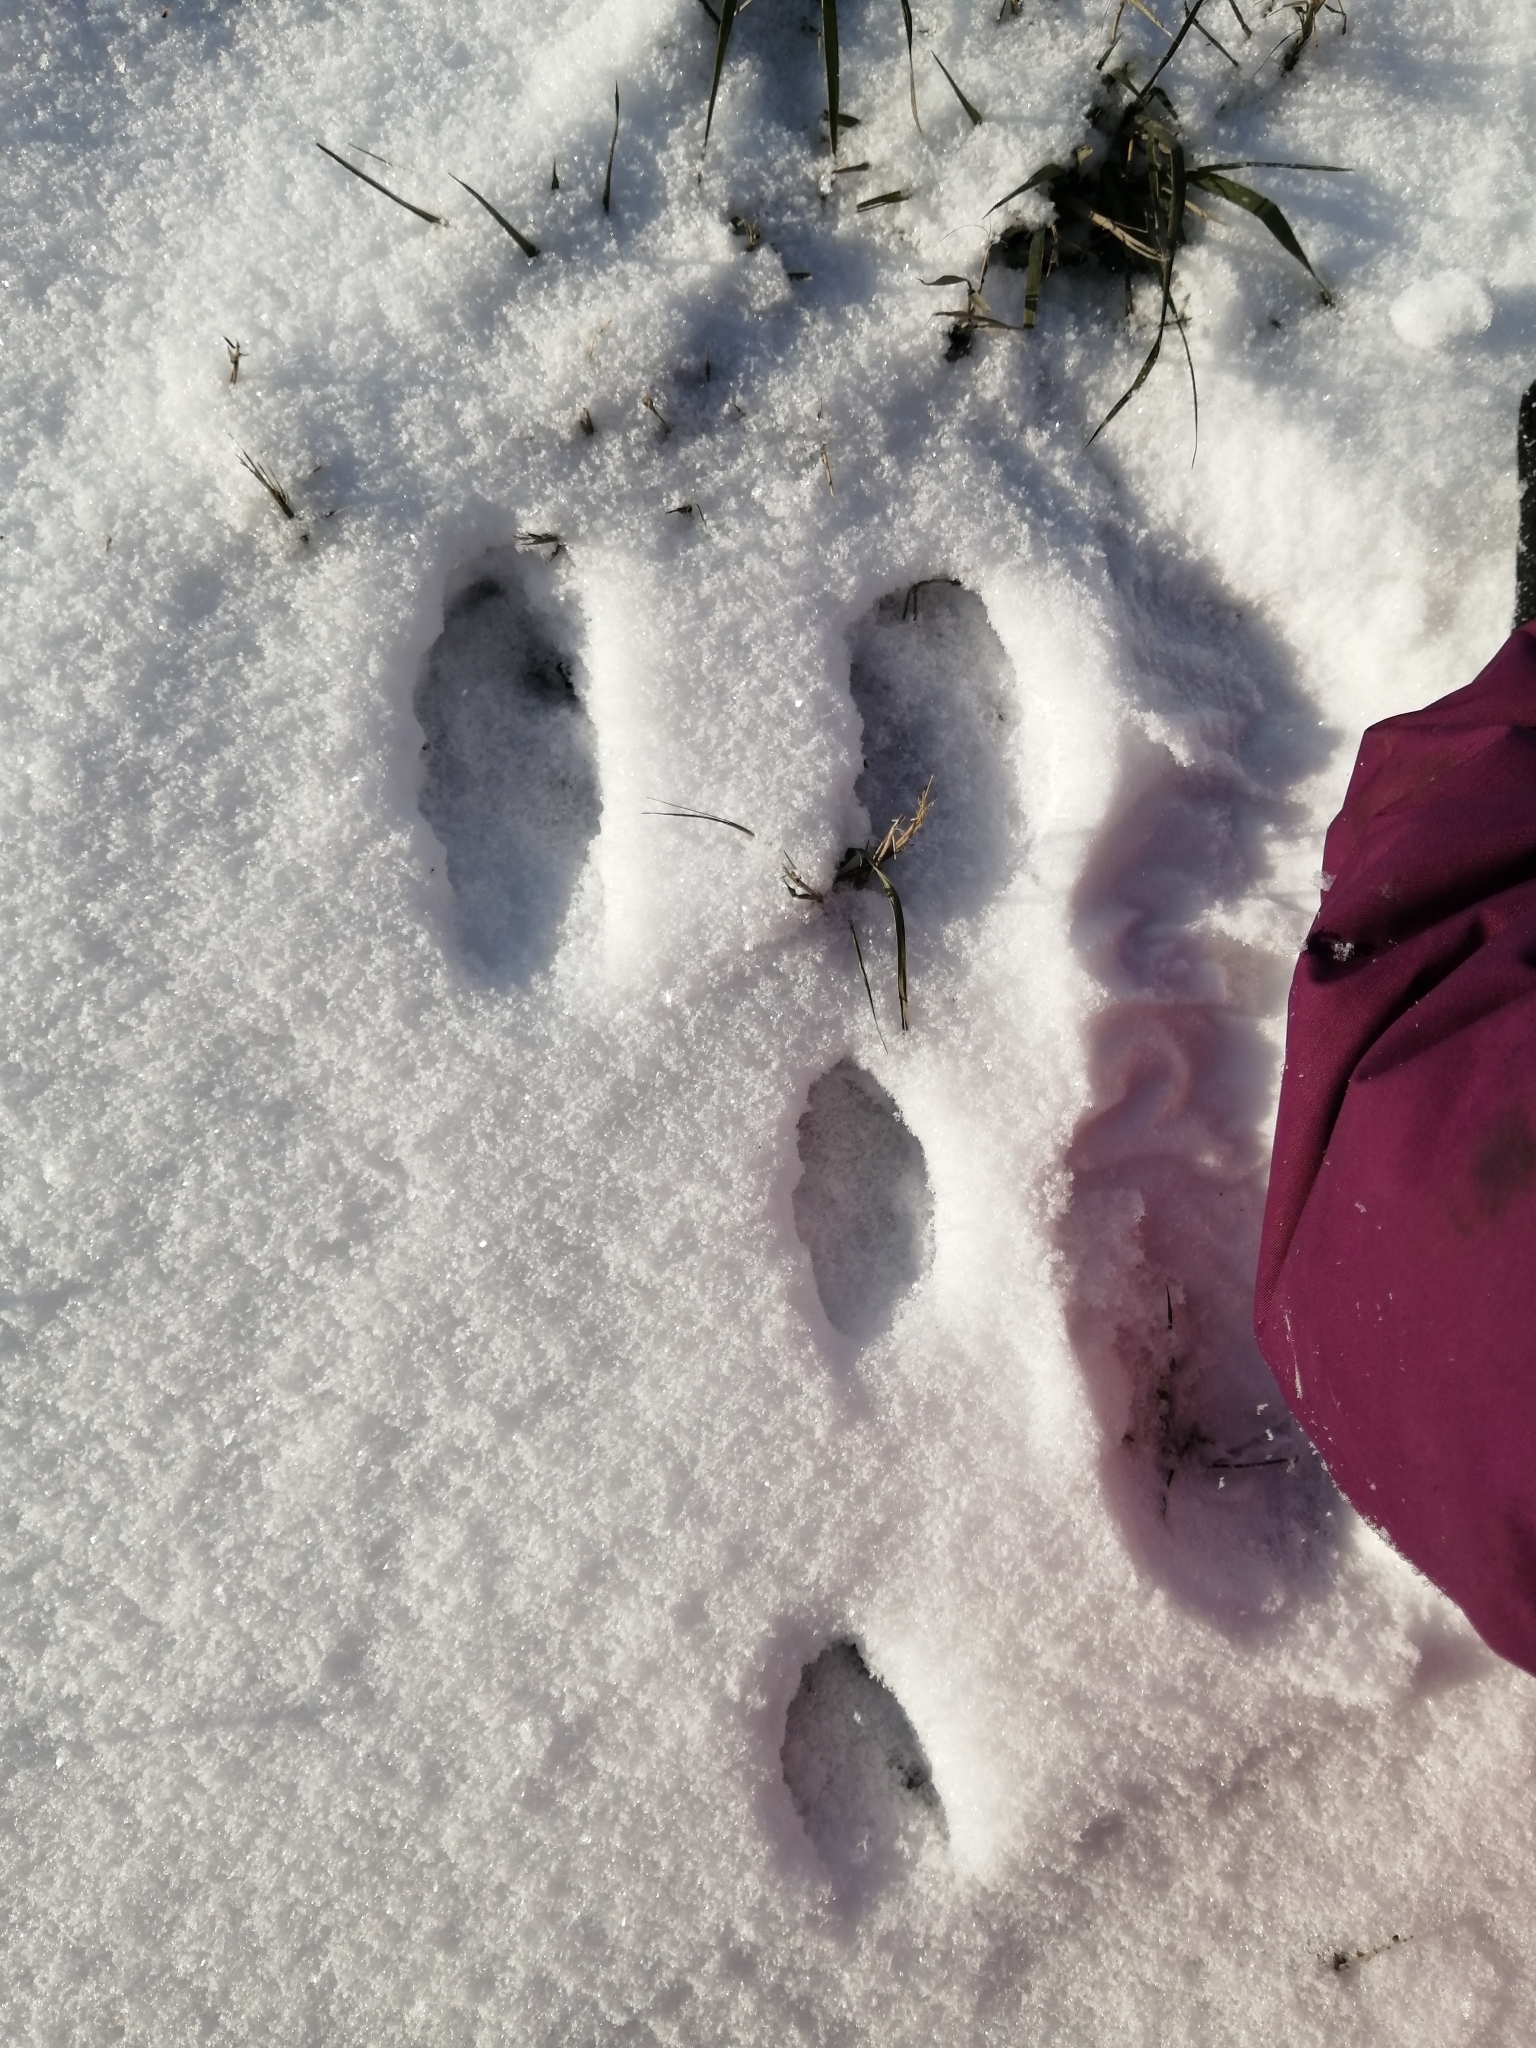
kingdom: Animalia
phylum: Chordata
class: Mammalia
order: Lagomorpha
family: Leporidae
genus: Lepus
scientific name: Lepus townsendii
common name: White-tailed jackrabbit
